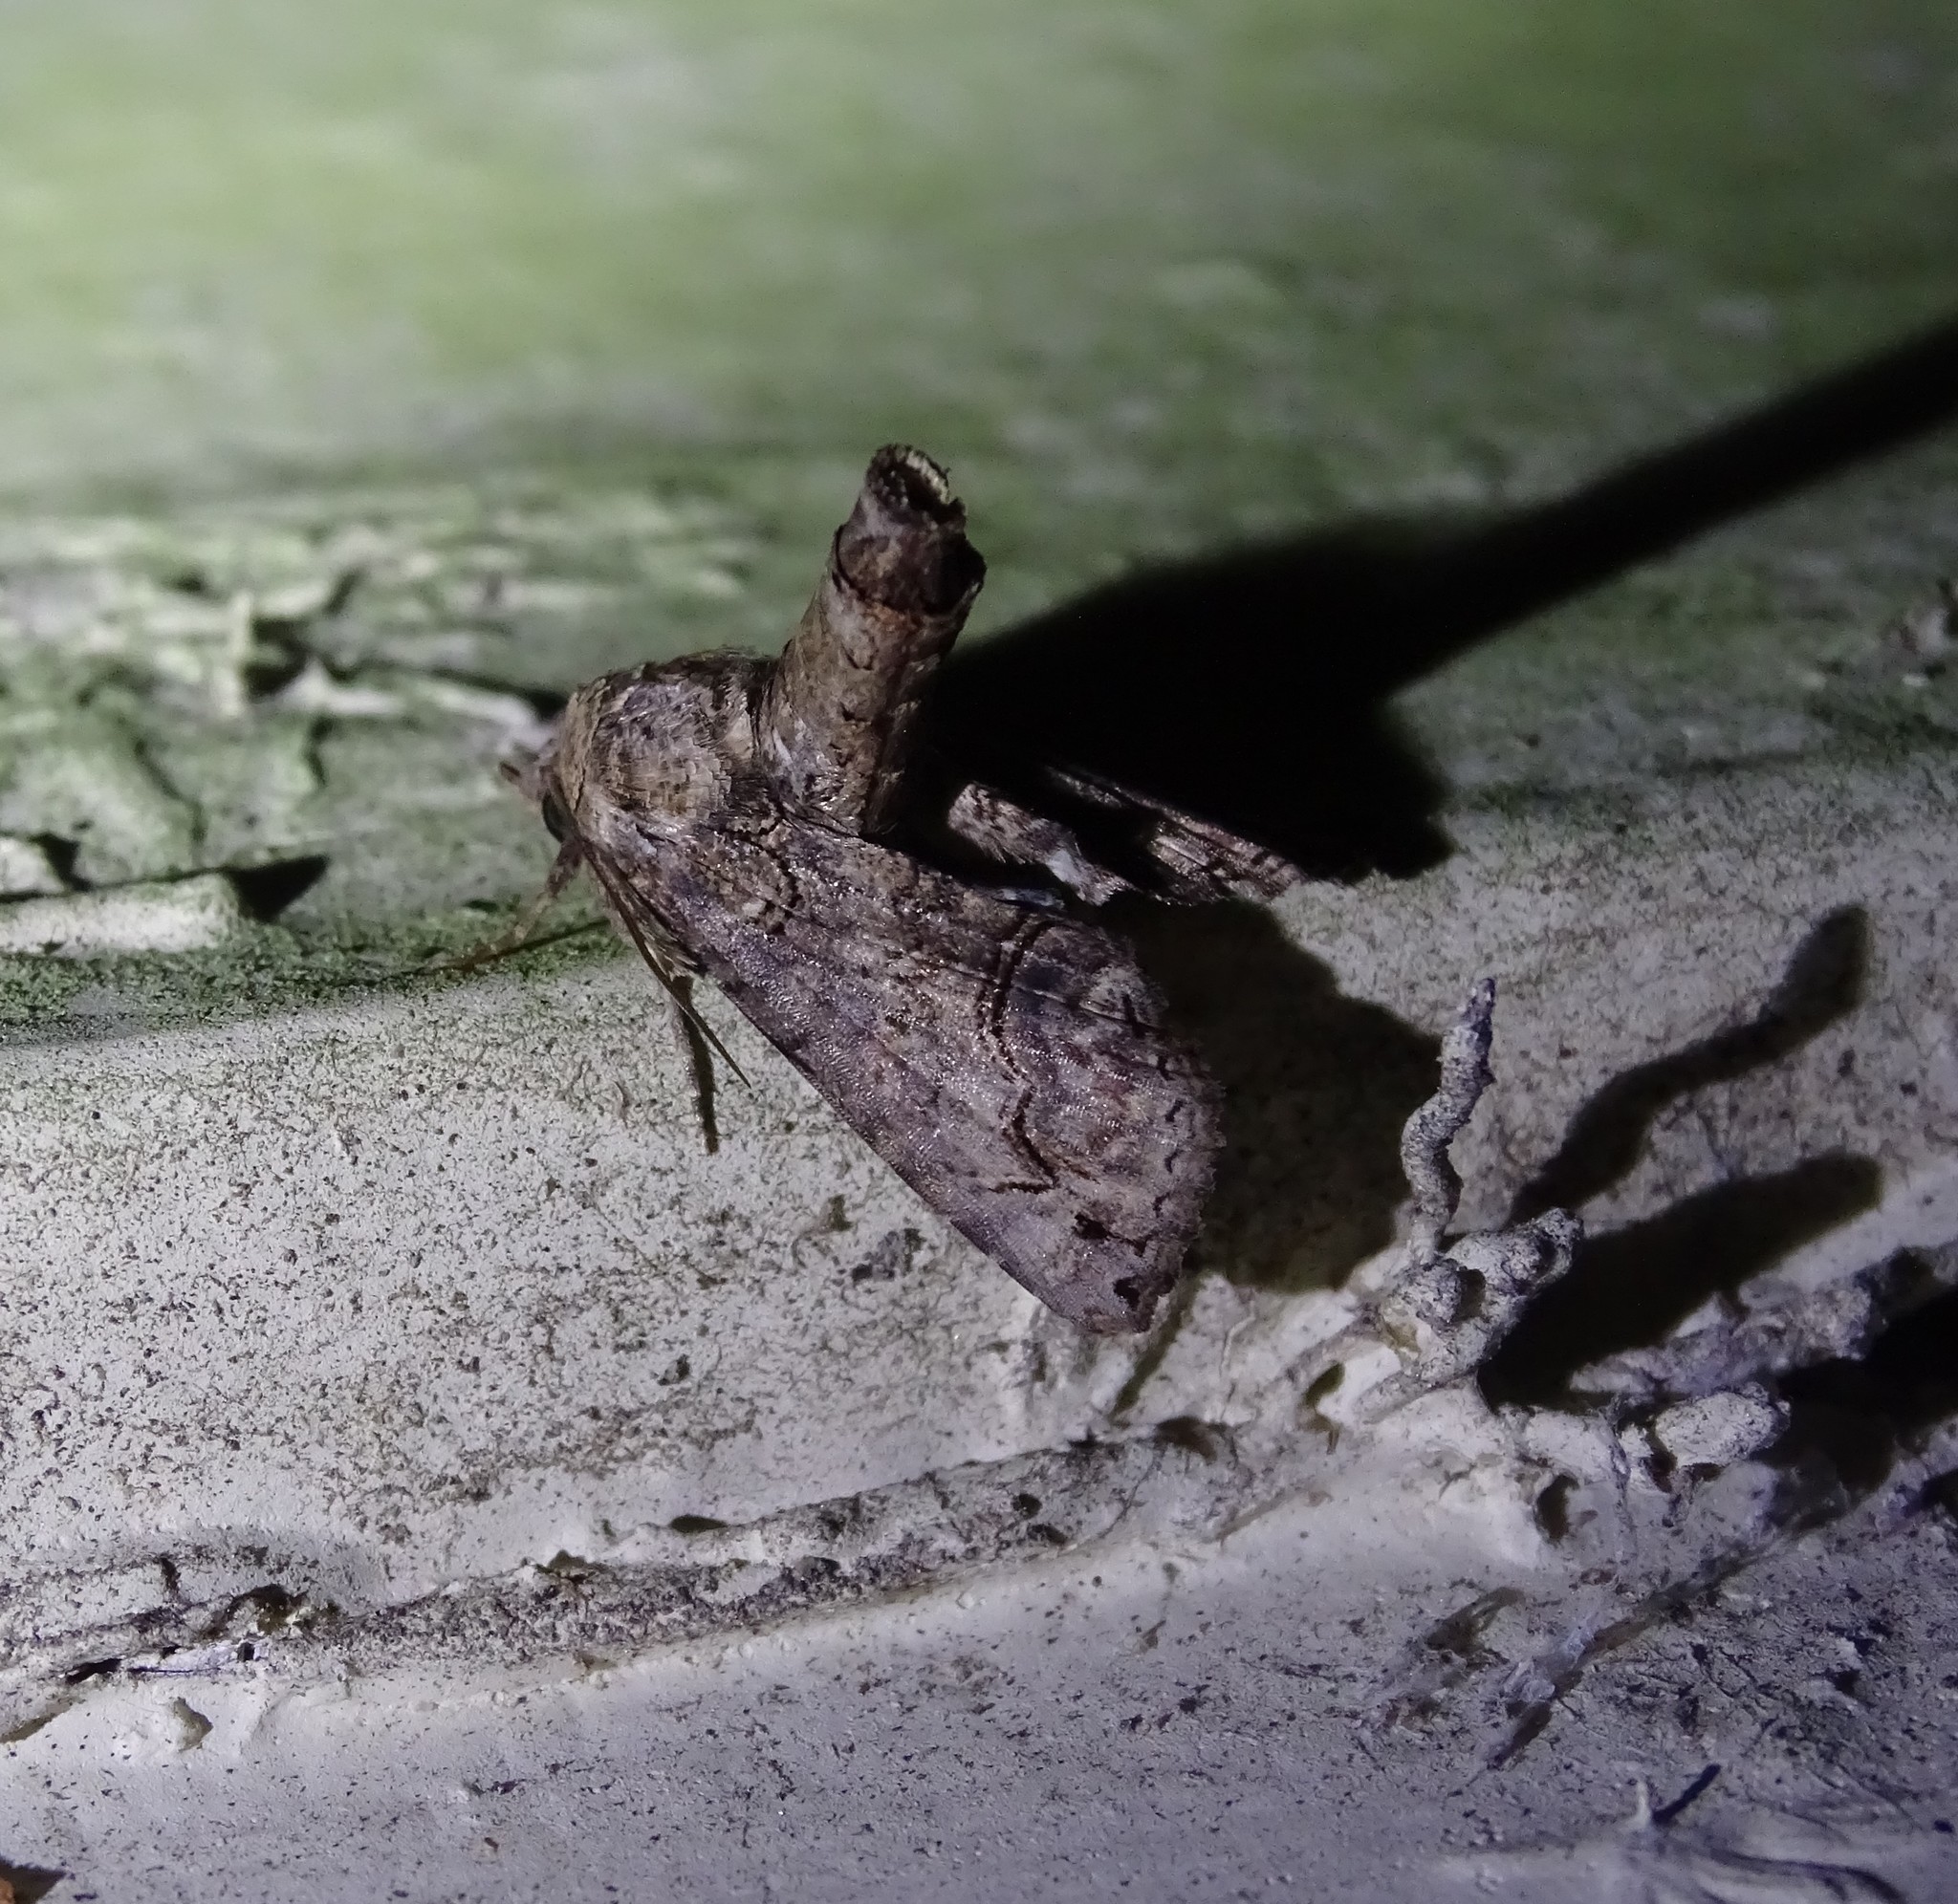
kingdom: Animalia
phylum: Arthropoda
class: Insecta
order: Lepidoptera
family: Euteliidae
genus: Paectes
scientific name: Paectes abrostoloides
